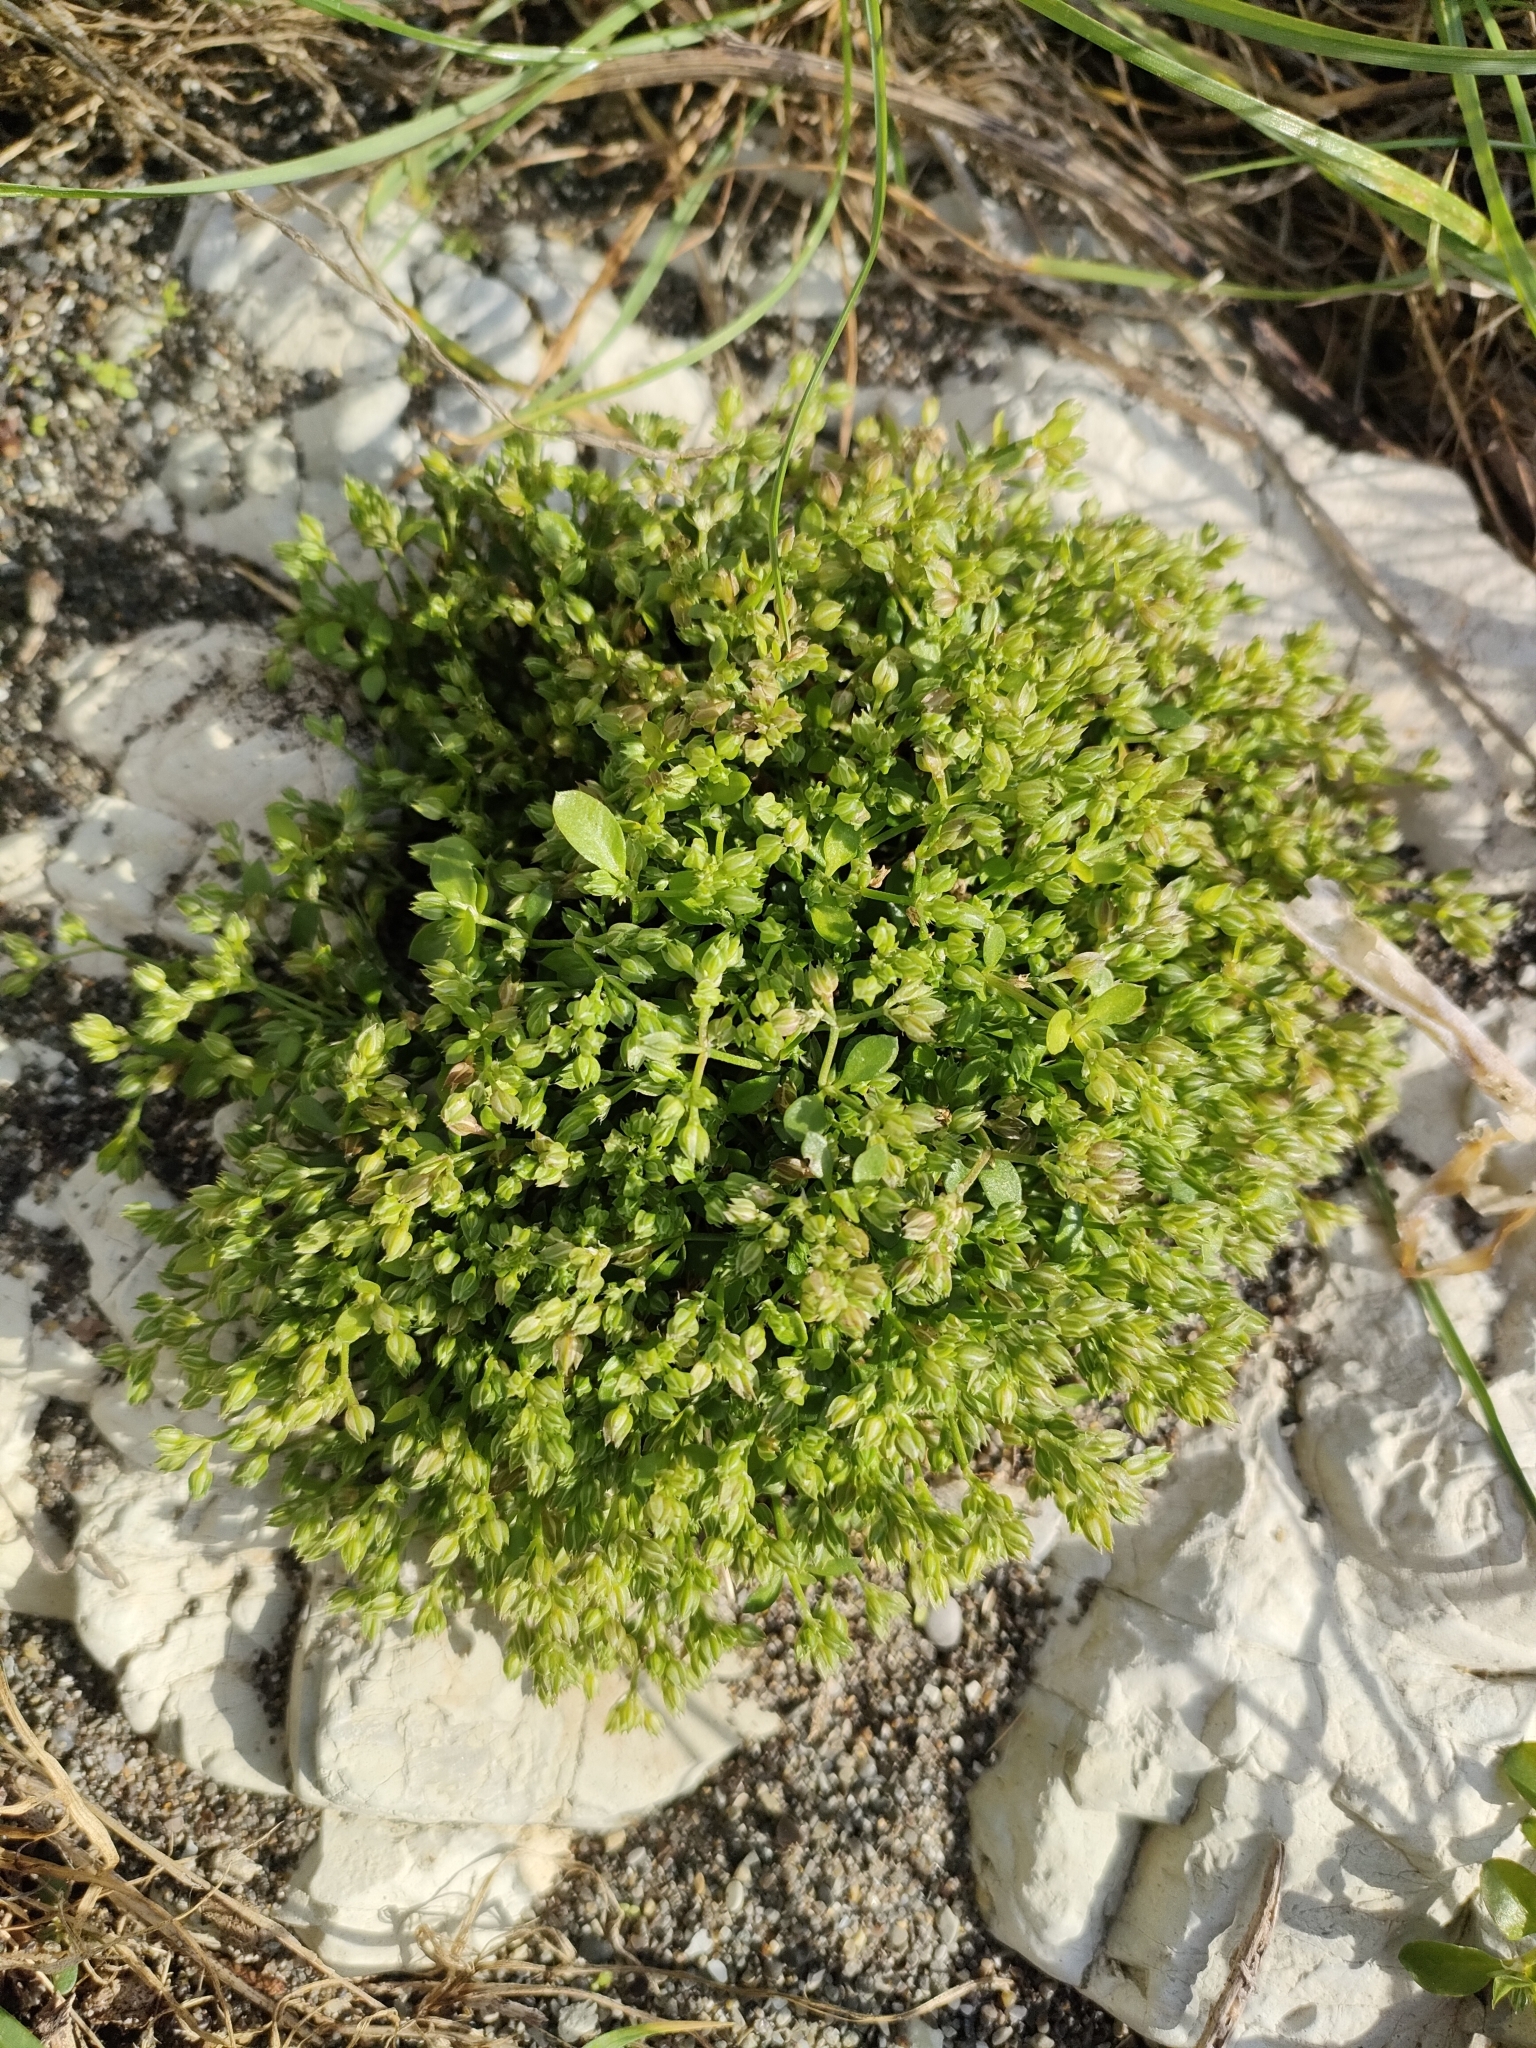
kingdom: Plantae
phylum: Tracheophyta
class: Magnoliopsida
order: Caryophyllales
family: Caryophyllaceae
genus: Polycarpon
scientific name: Polycarpon tetraphyllum
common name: Four-leaved all-seed
